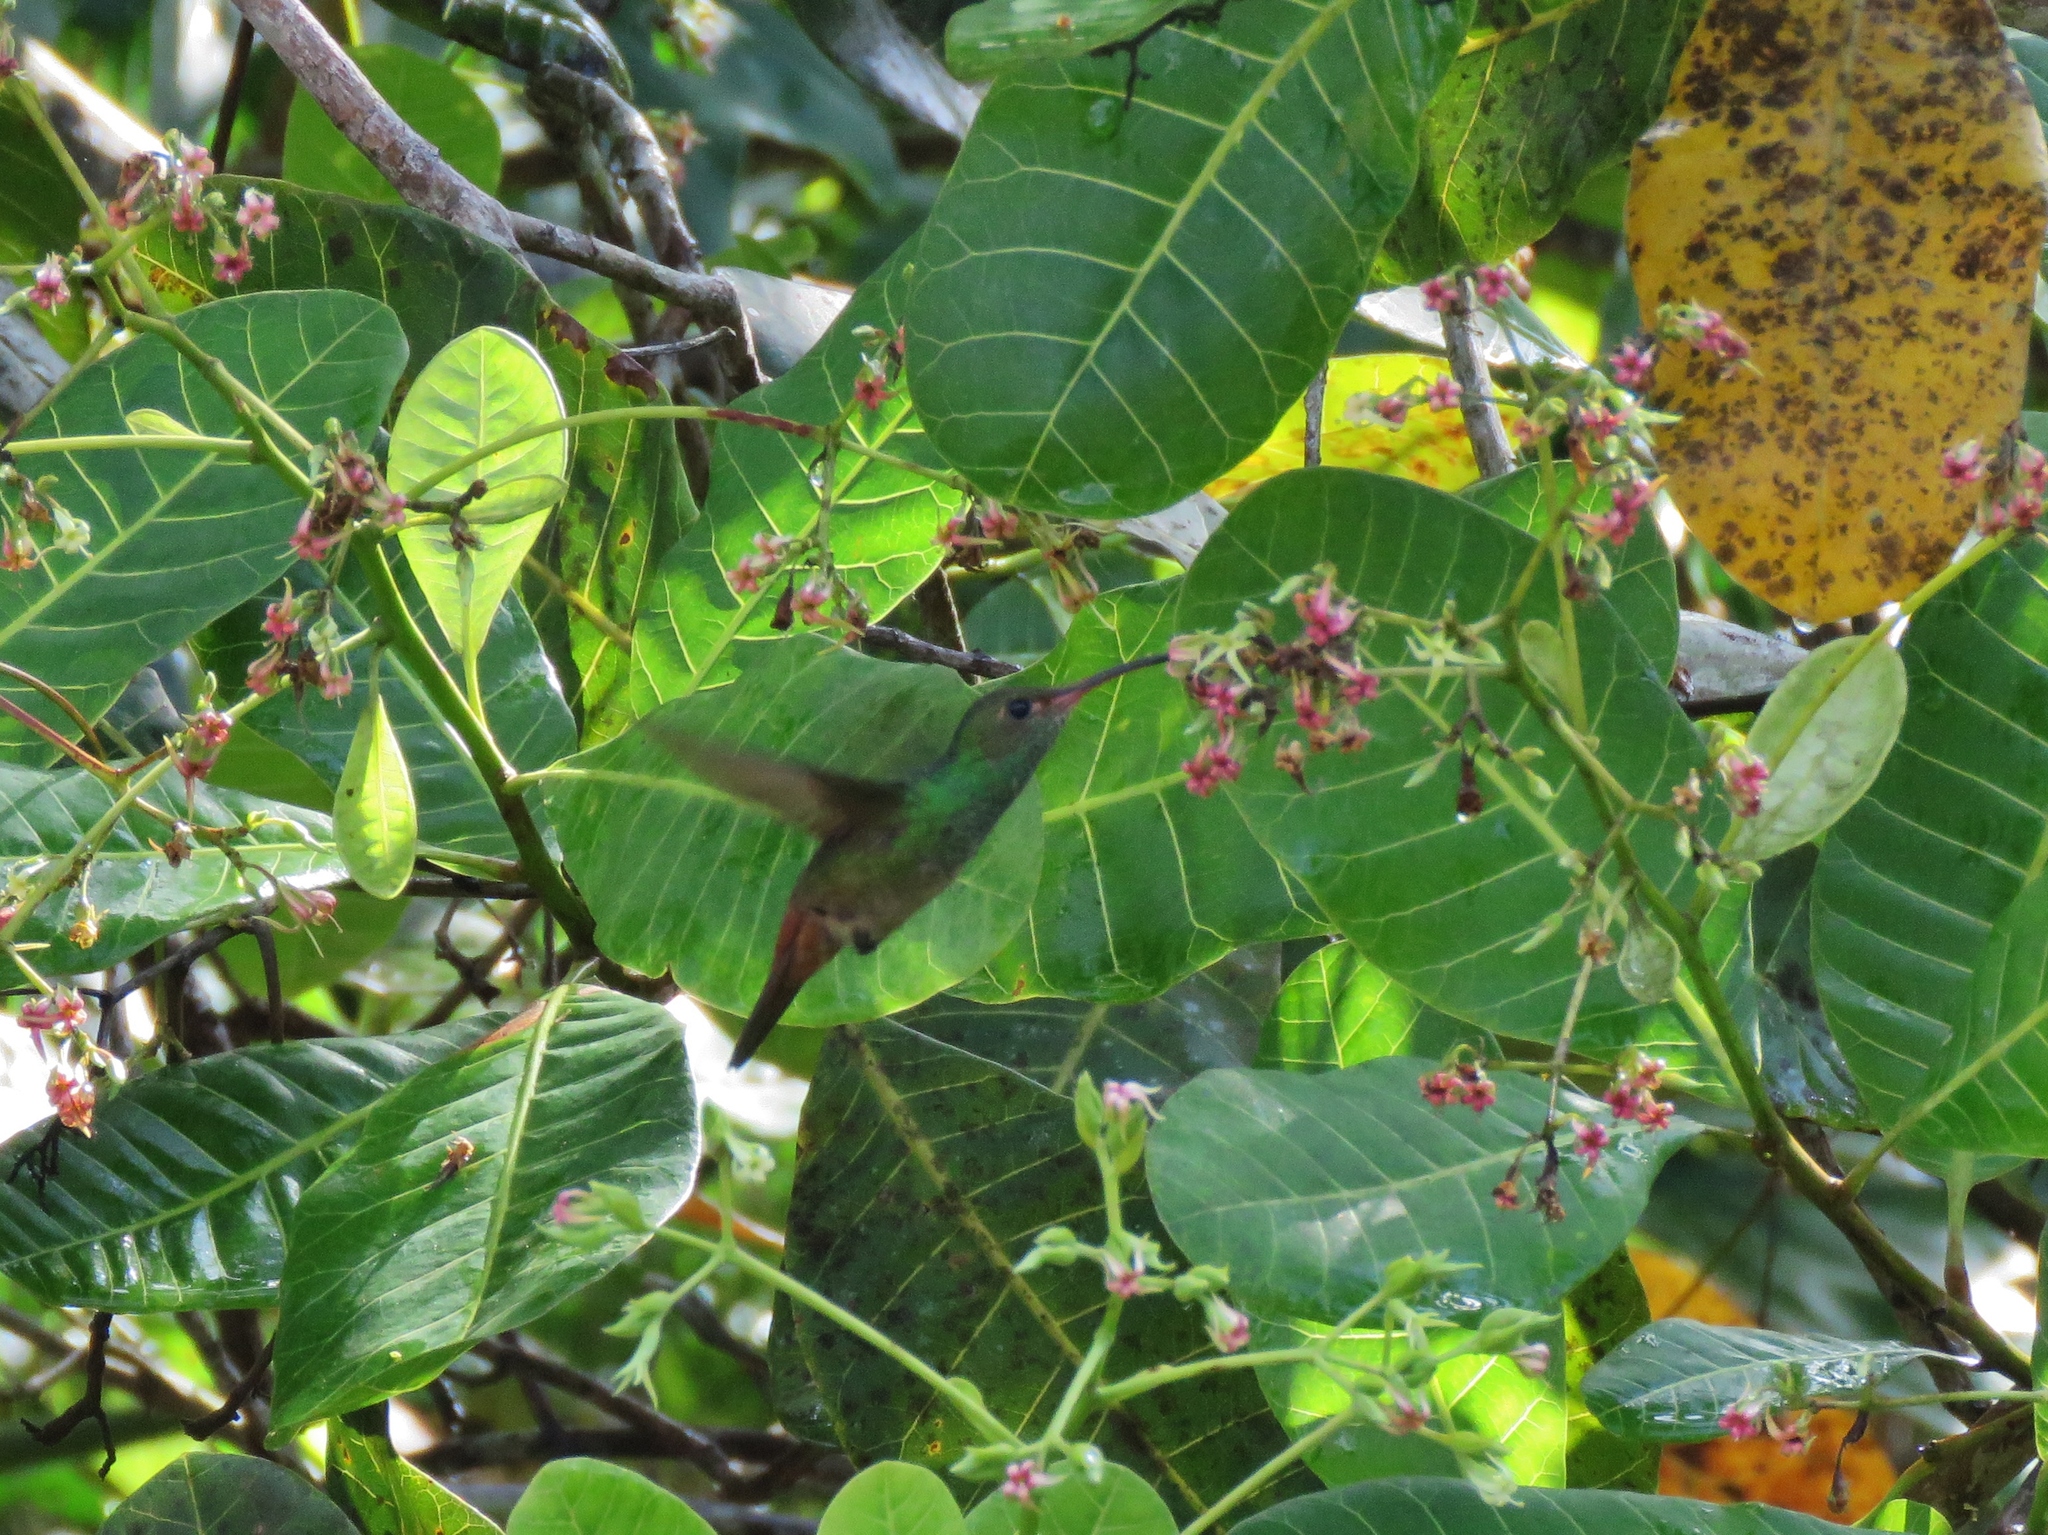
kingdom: Animalia
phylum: Chordata
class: Aves
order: Apodiformes
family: Trochilidae
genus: Amazilia
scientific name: Amazilia tzacatl
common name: Rufous-tailed hummingbird
